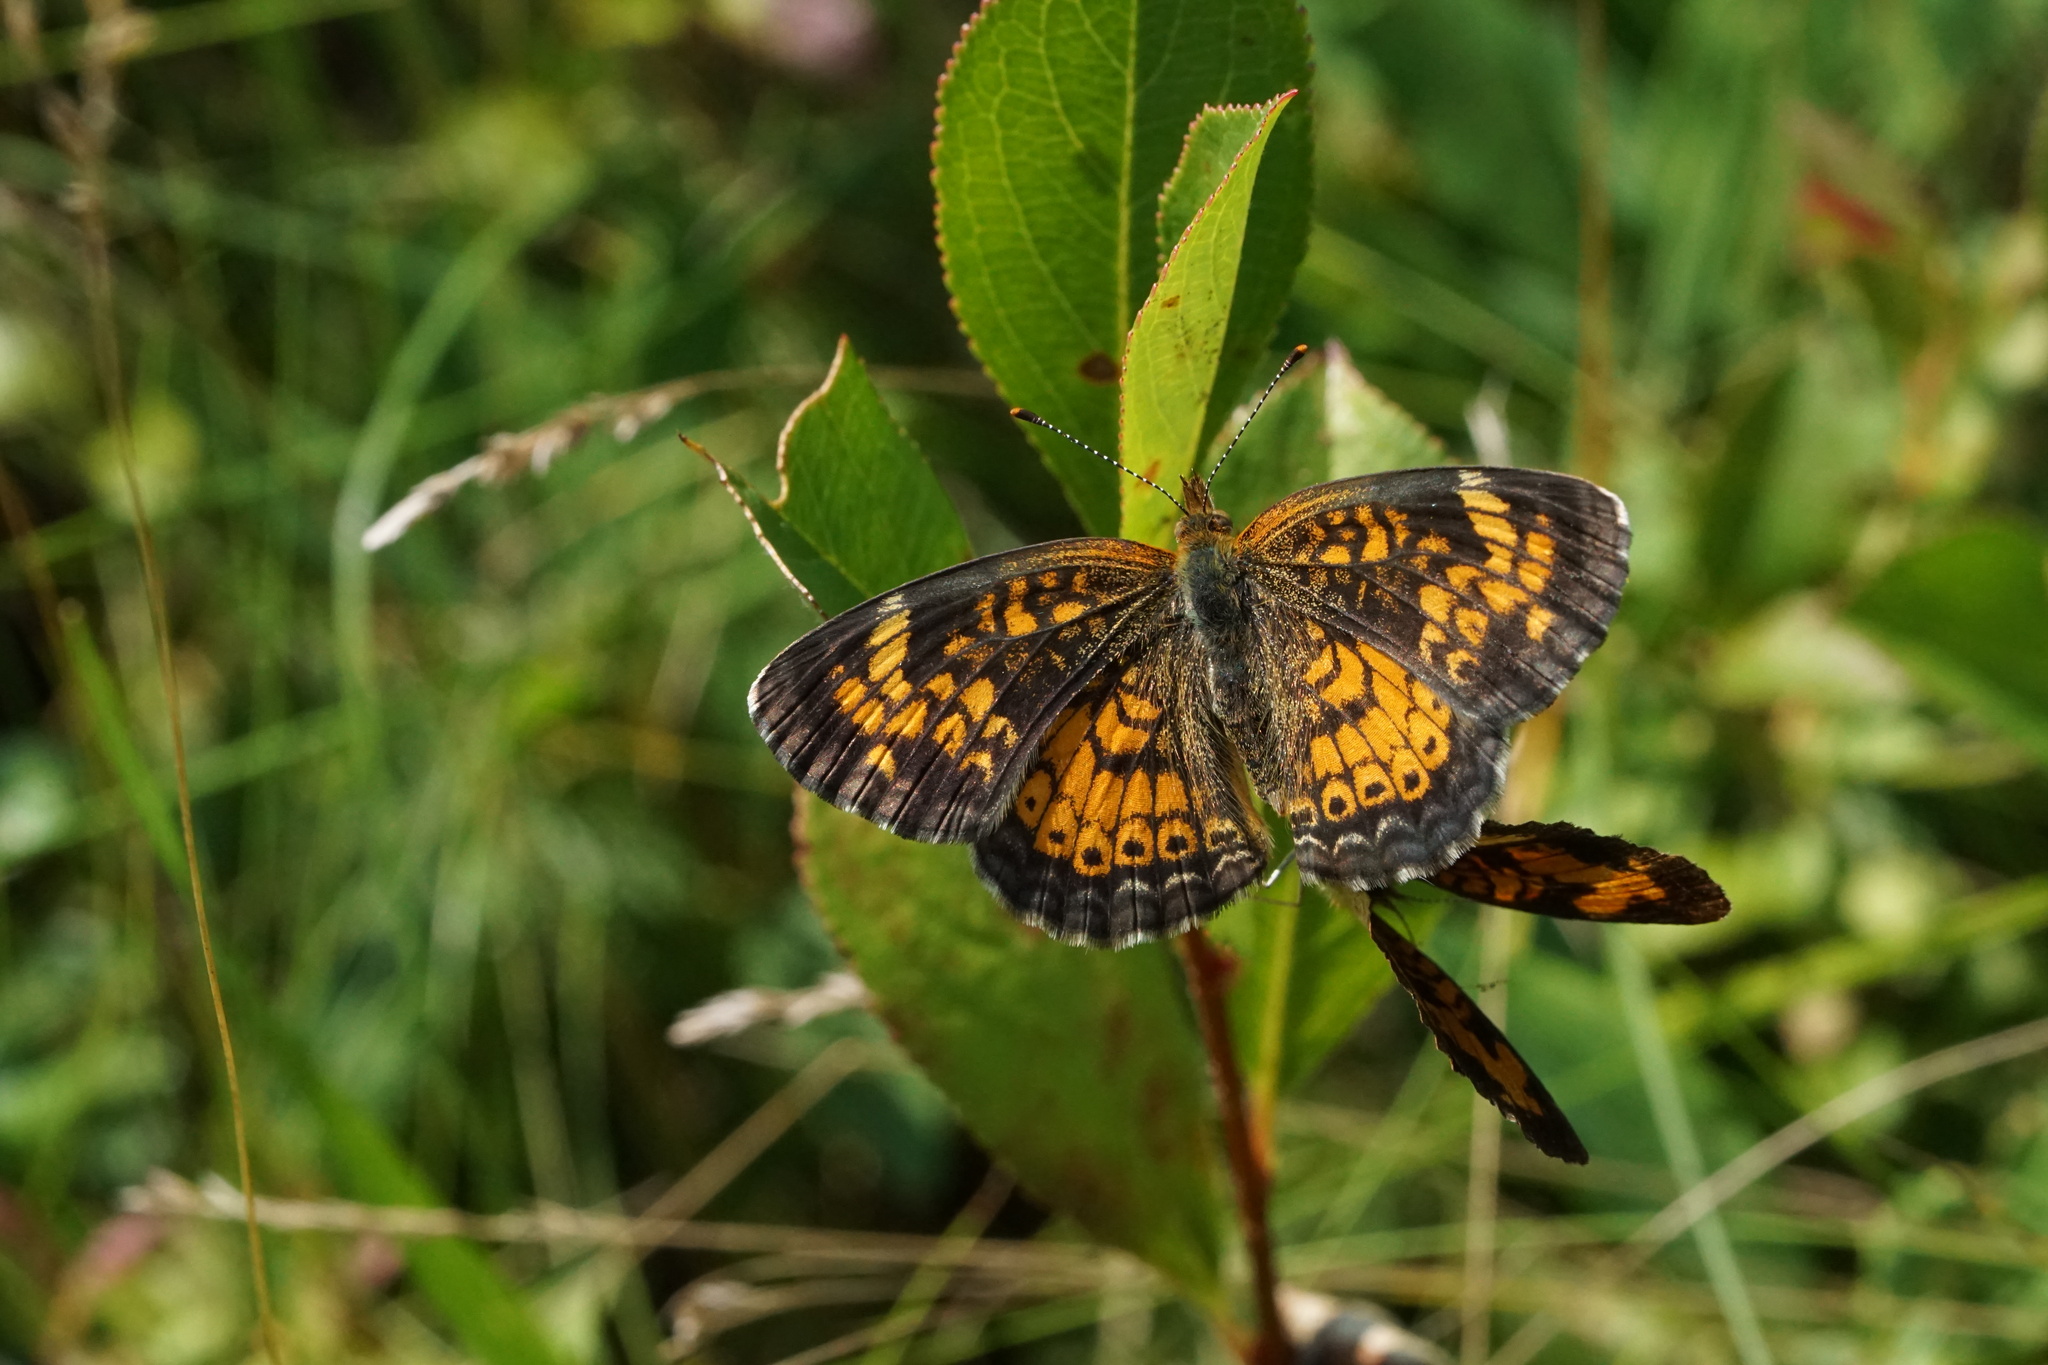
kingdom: Animalia
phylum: Arthropoda
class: Insecta
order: Lepidoptera
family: Nymphalidae
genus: Phyciodes
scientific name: Phyciodes tharos
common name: Pearl crescent
